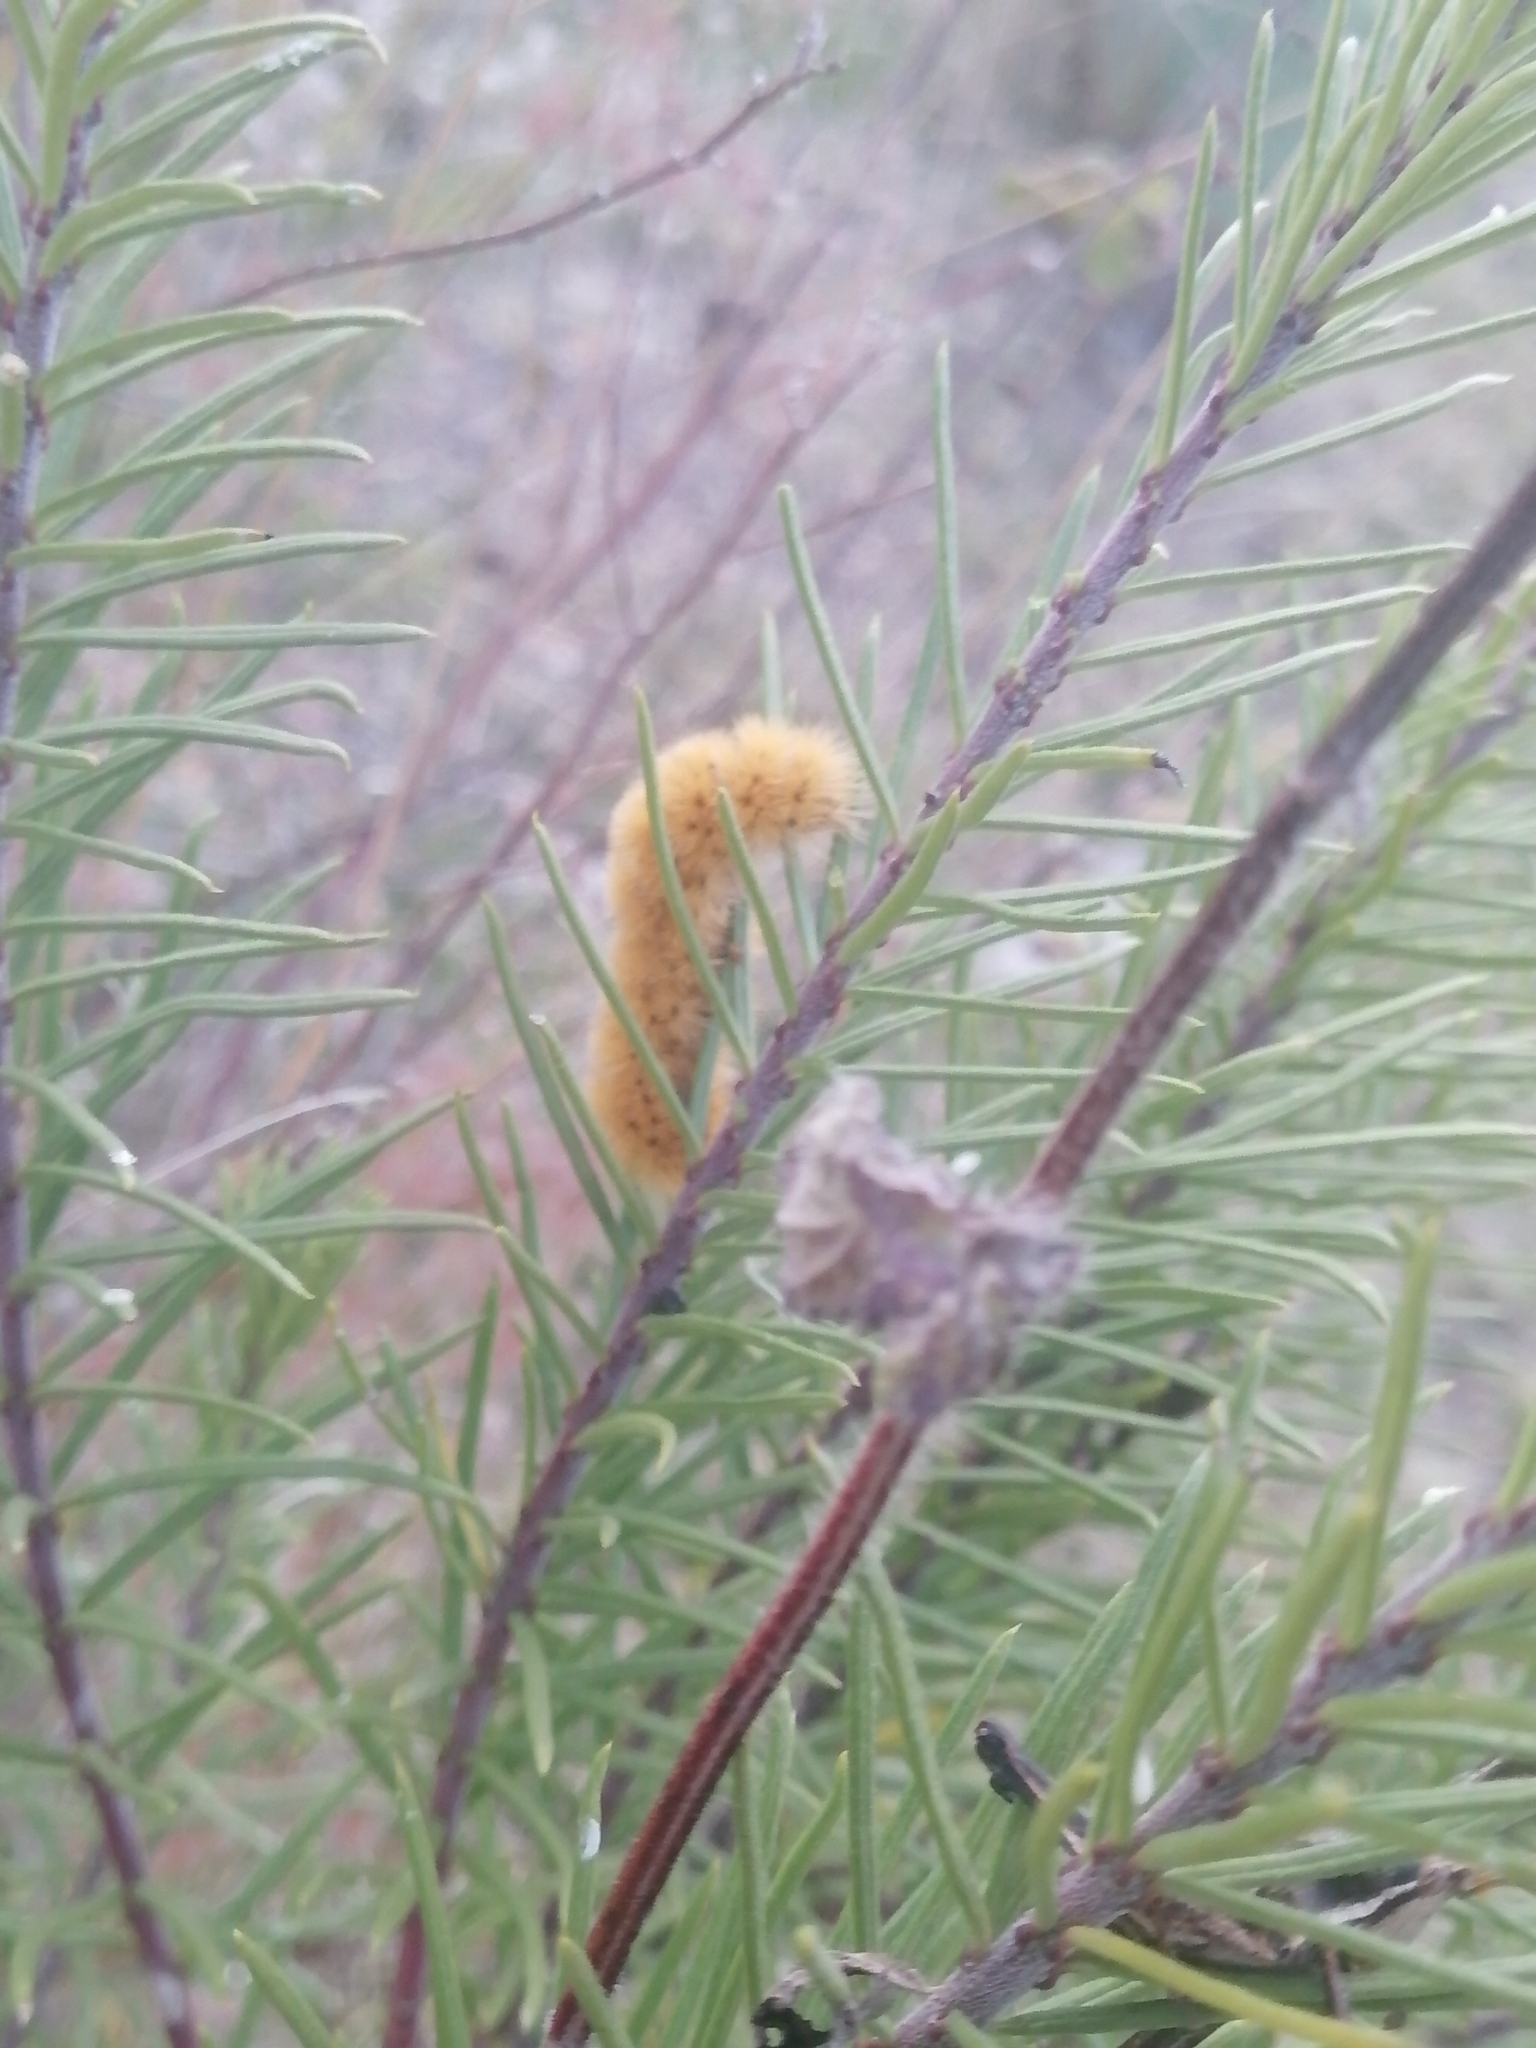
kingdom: Animalia
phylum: Arthropoda
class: Insecta
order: Lepidoptera
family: Erebidae
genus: Lerina
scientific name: Lerina incarnata
